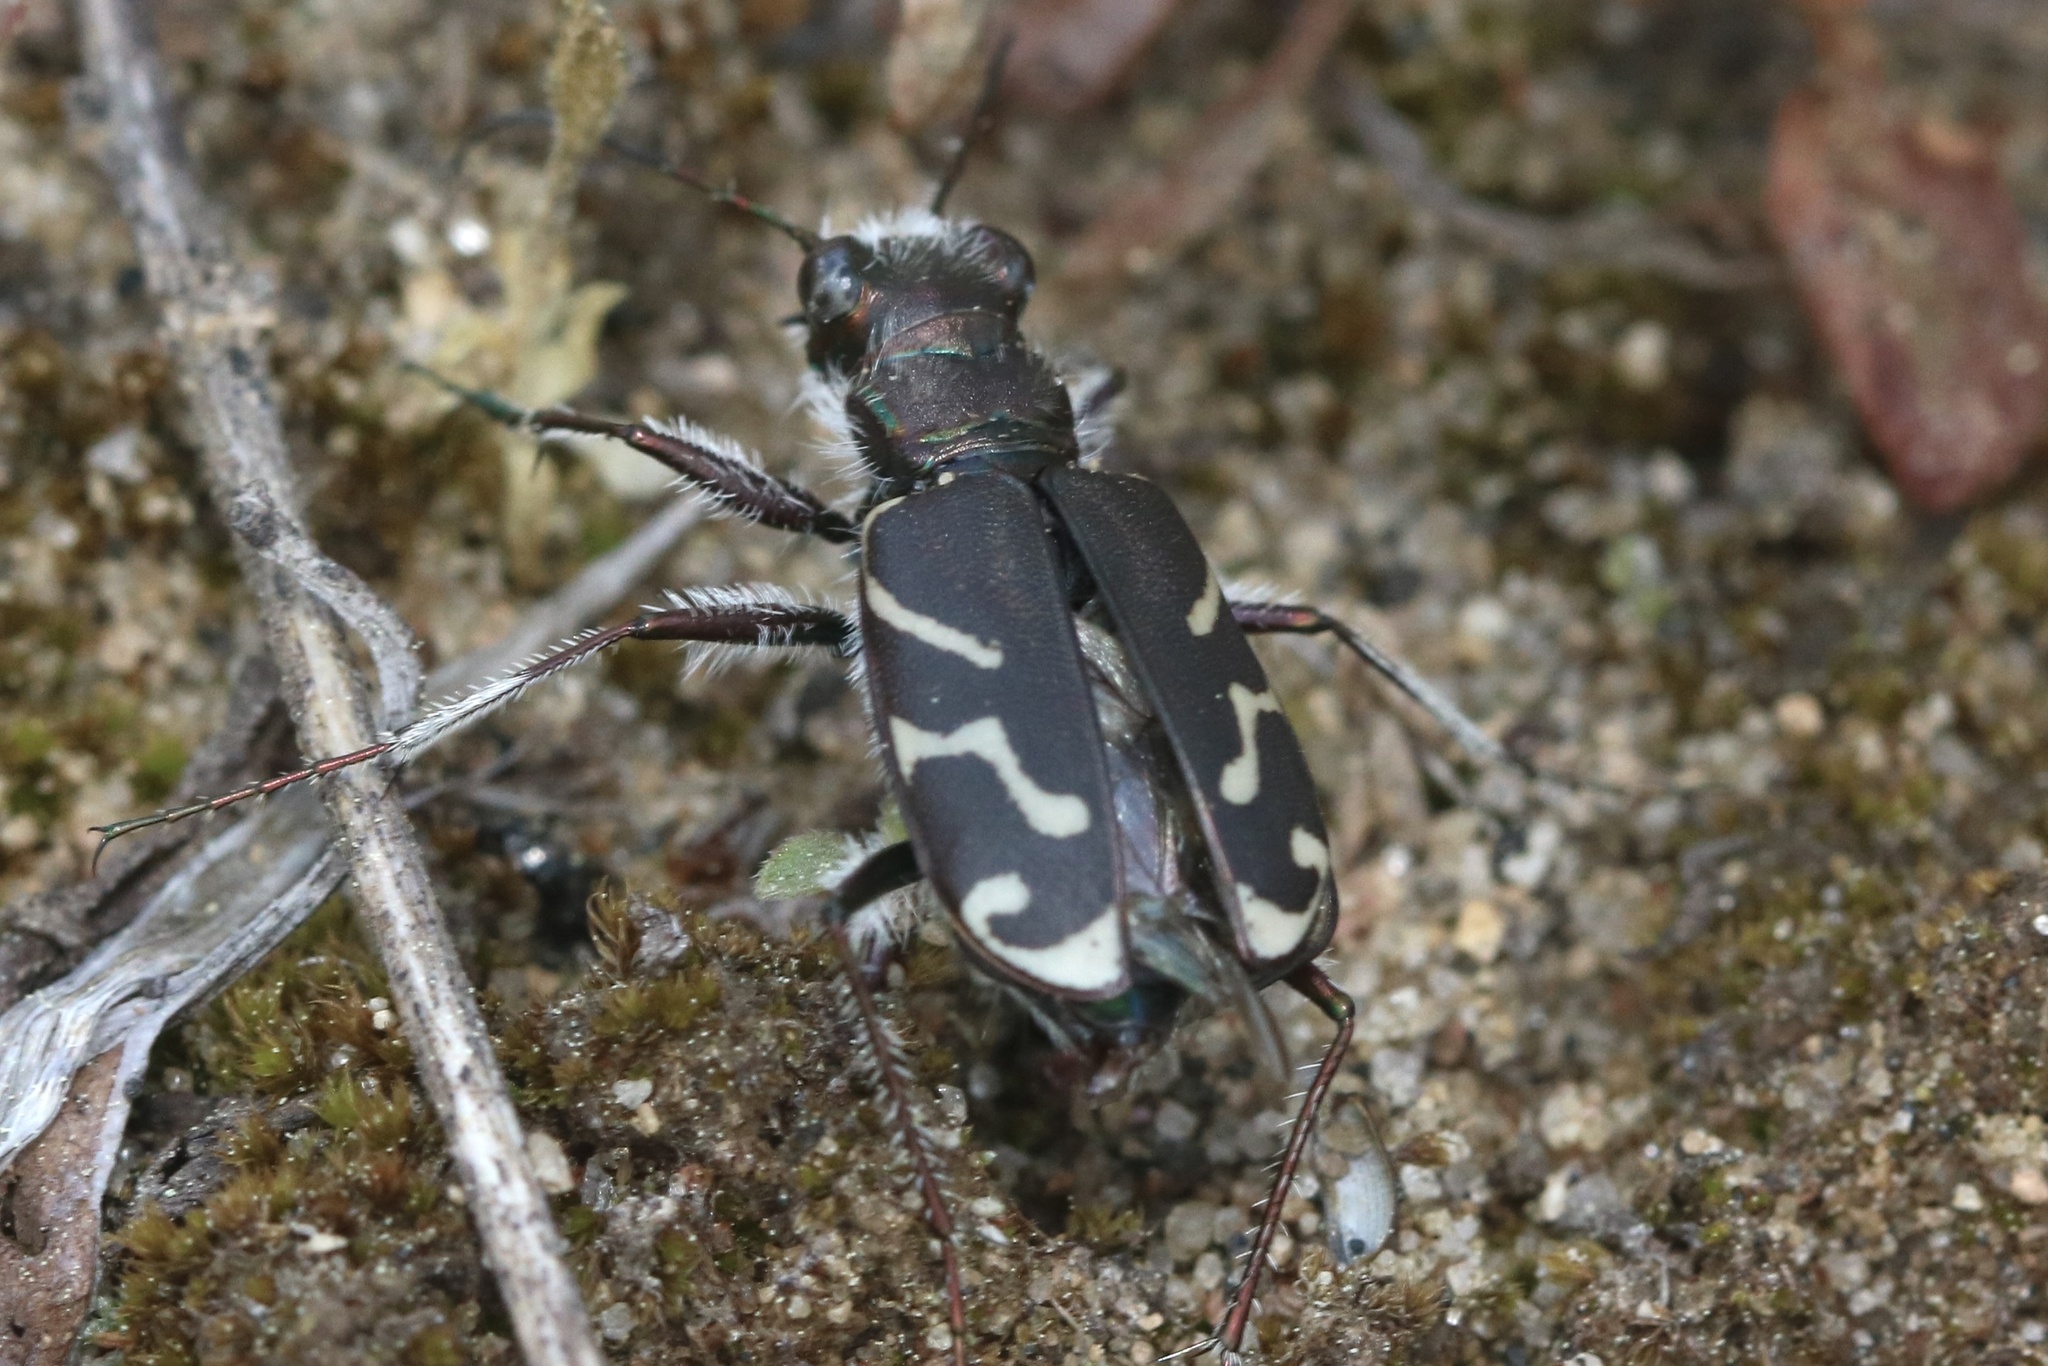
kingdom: Animalia
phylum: Arthropoda
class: Insecta
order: Coleoptera
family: Carabidae
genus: Cicindela
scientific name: Cicindela tranquebarica
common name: Oblique-lined tiger beetle
